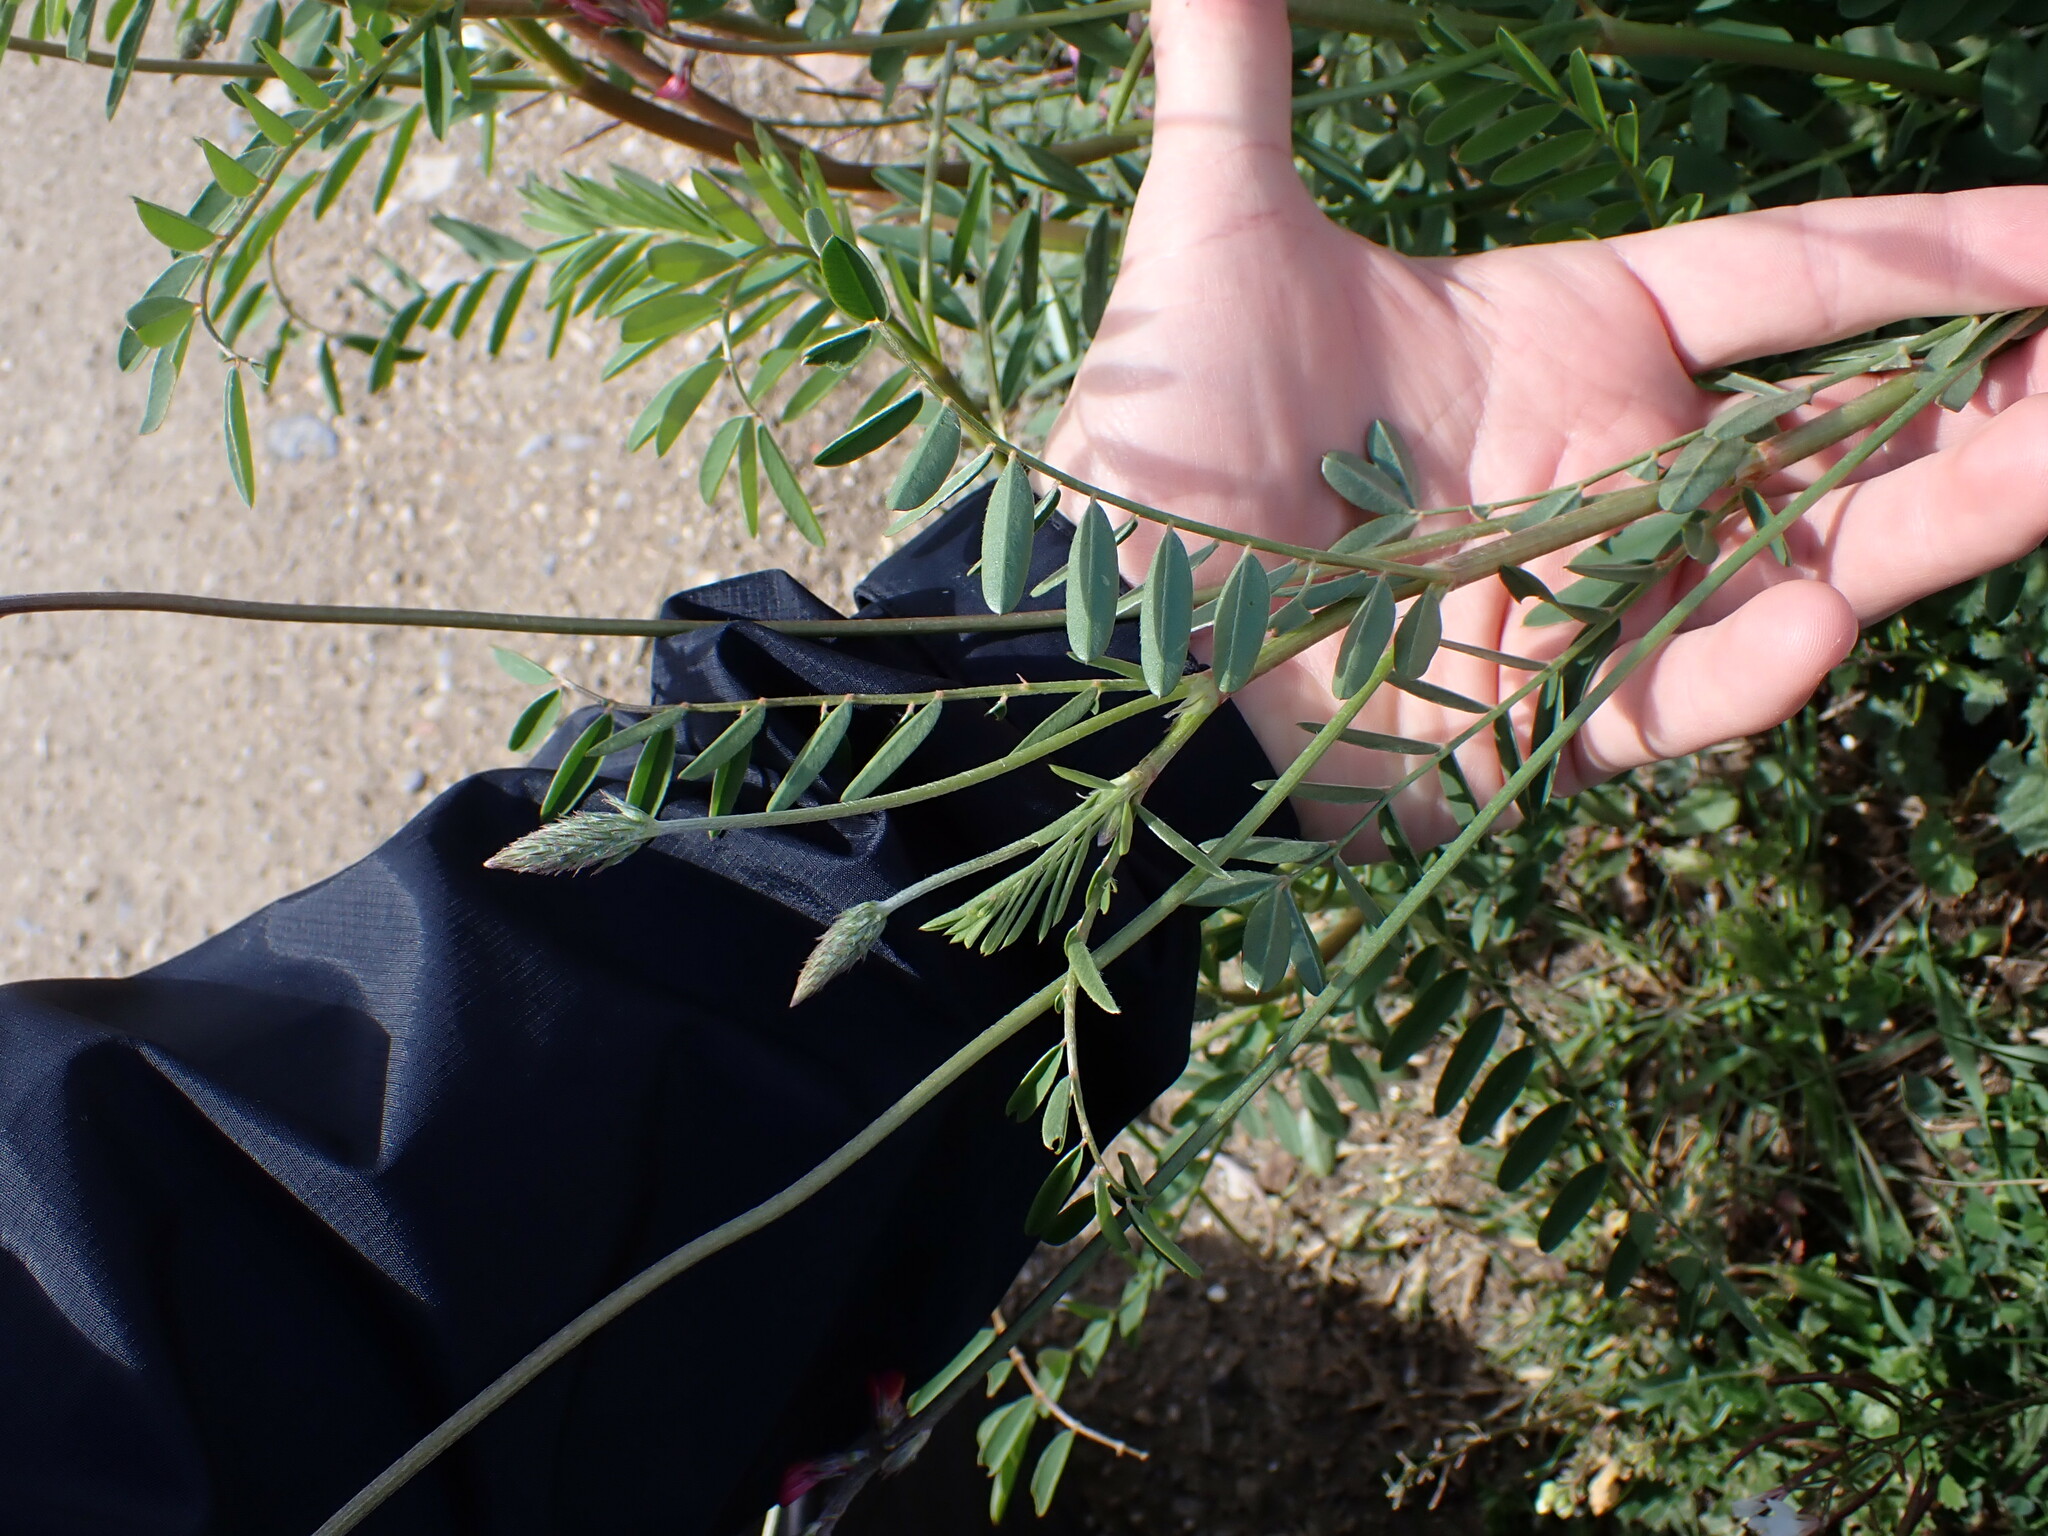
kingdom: Plantae
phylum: Tracheophyta
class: Magnoliopsida
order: Fabales
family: Fabaceae
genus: Onobrychis
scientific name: Onobrychis viciifolia
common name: Sainfoin
